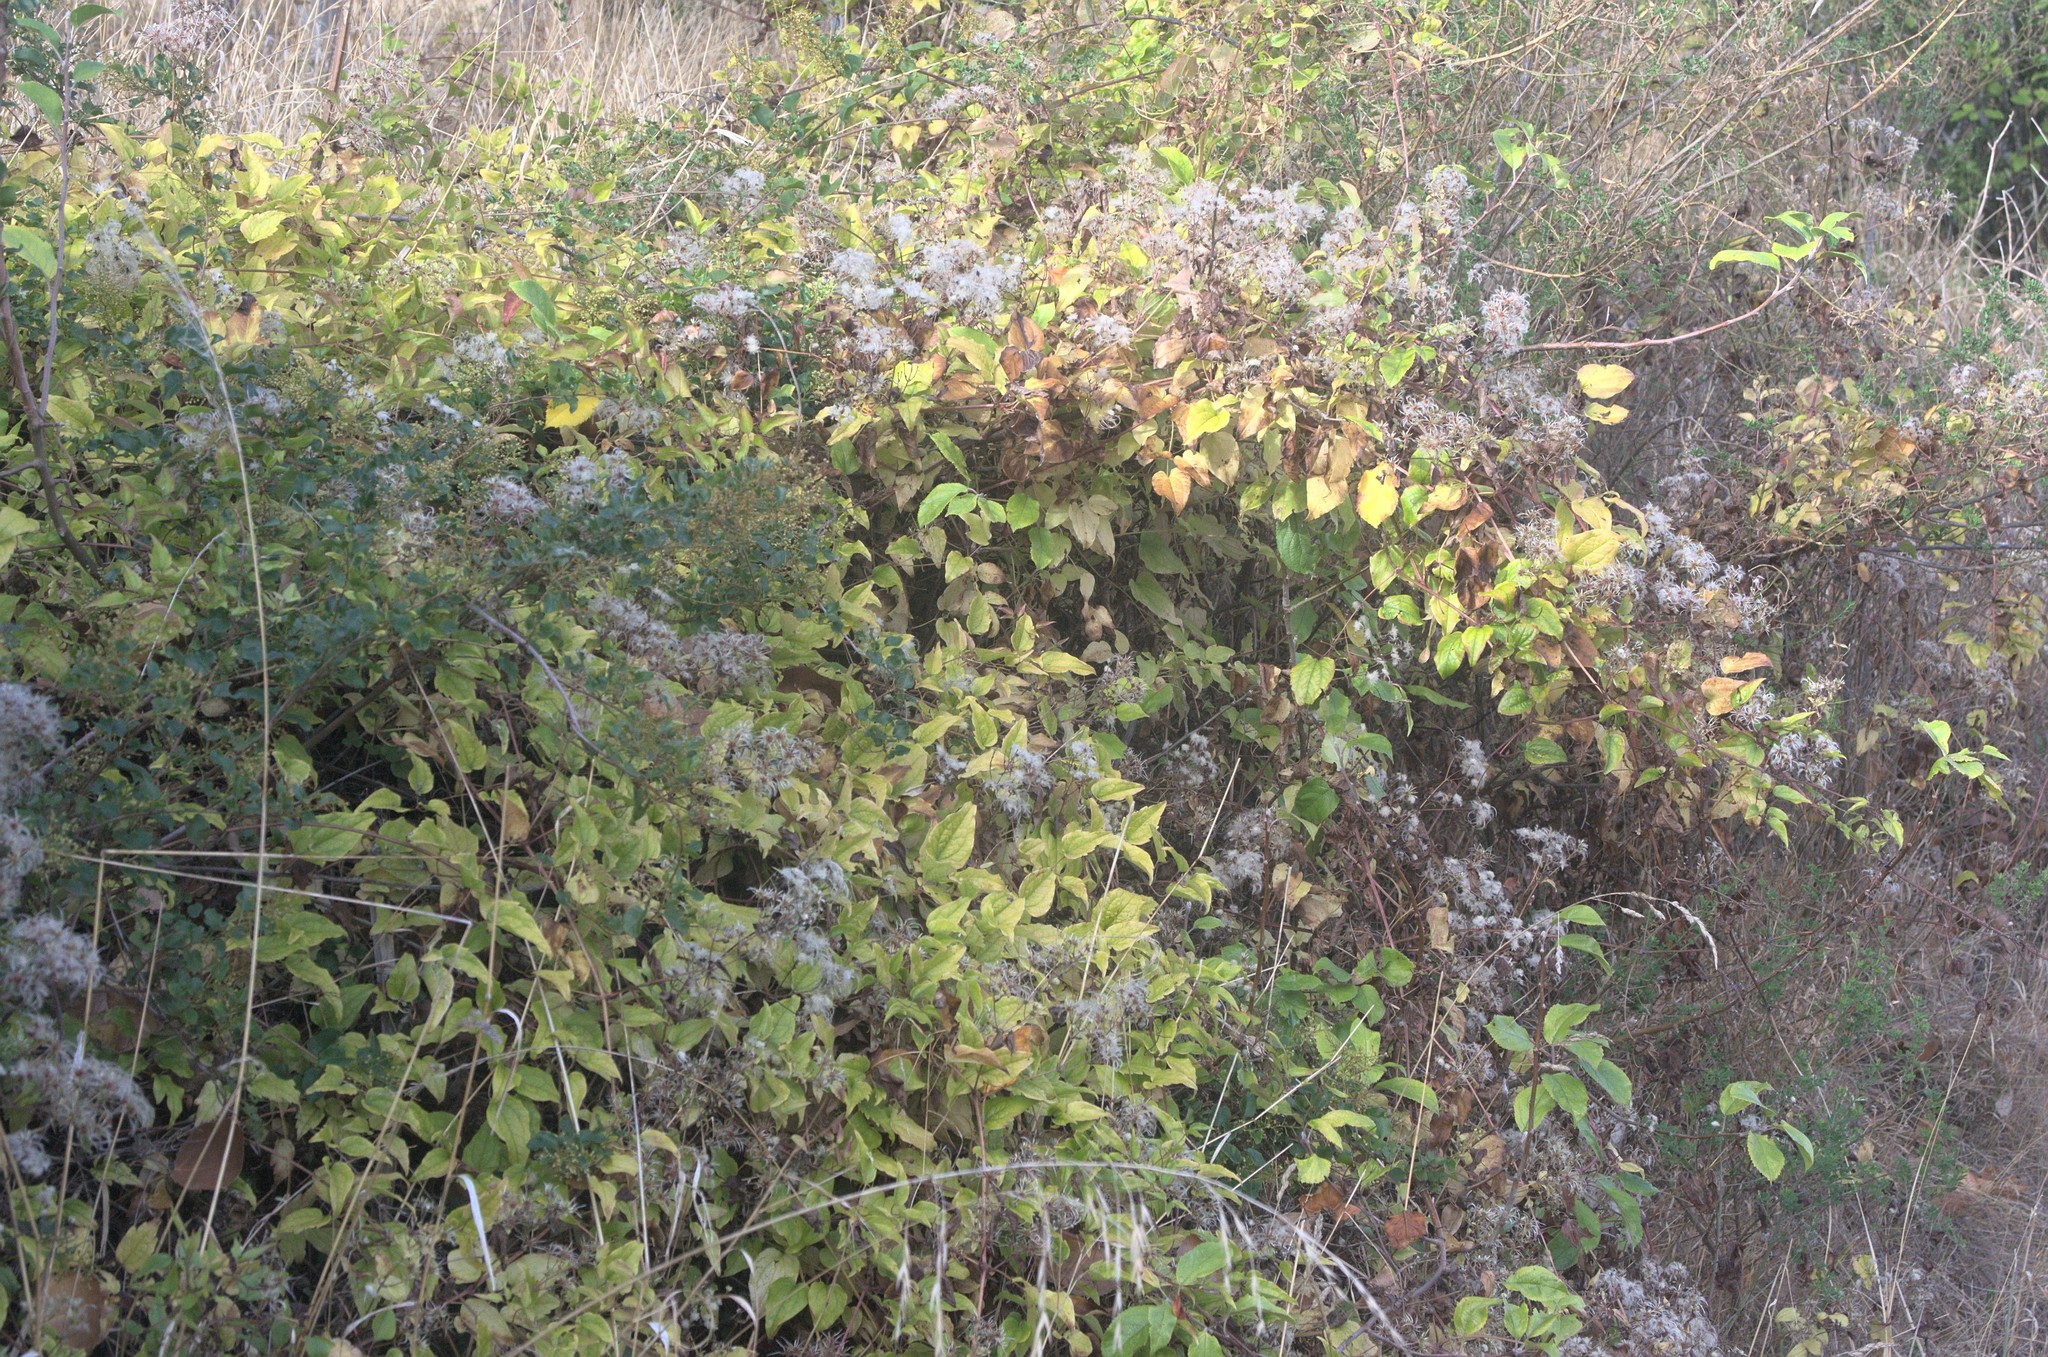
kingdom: Plantae
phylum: Tracheophyta
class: Magnoliopsida
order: Ranunculales
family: Ranunculaceae
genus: Clematis
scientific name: Clematis vitalba
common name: Evergreen clematis
